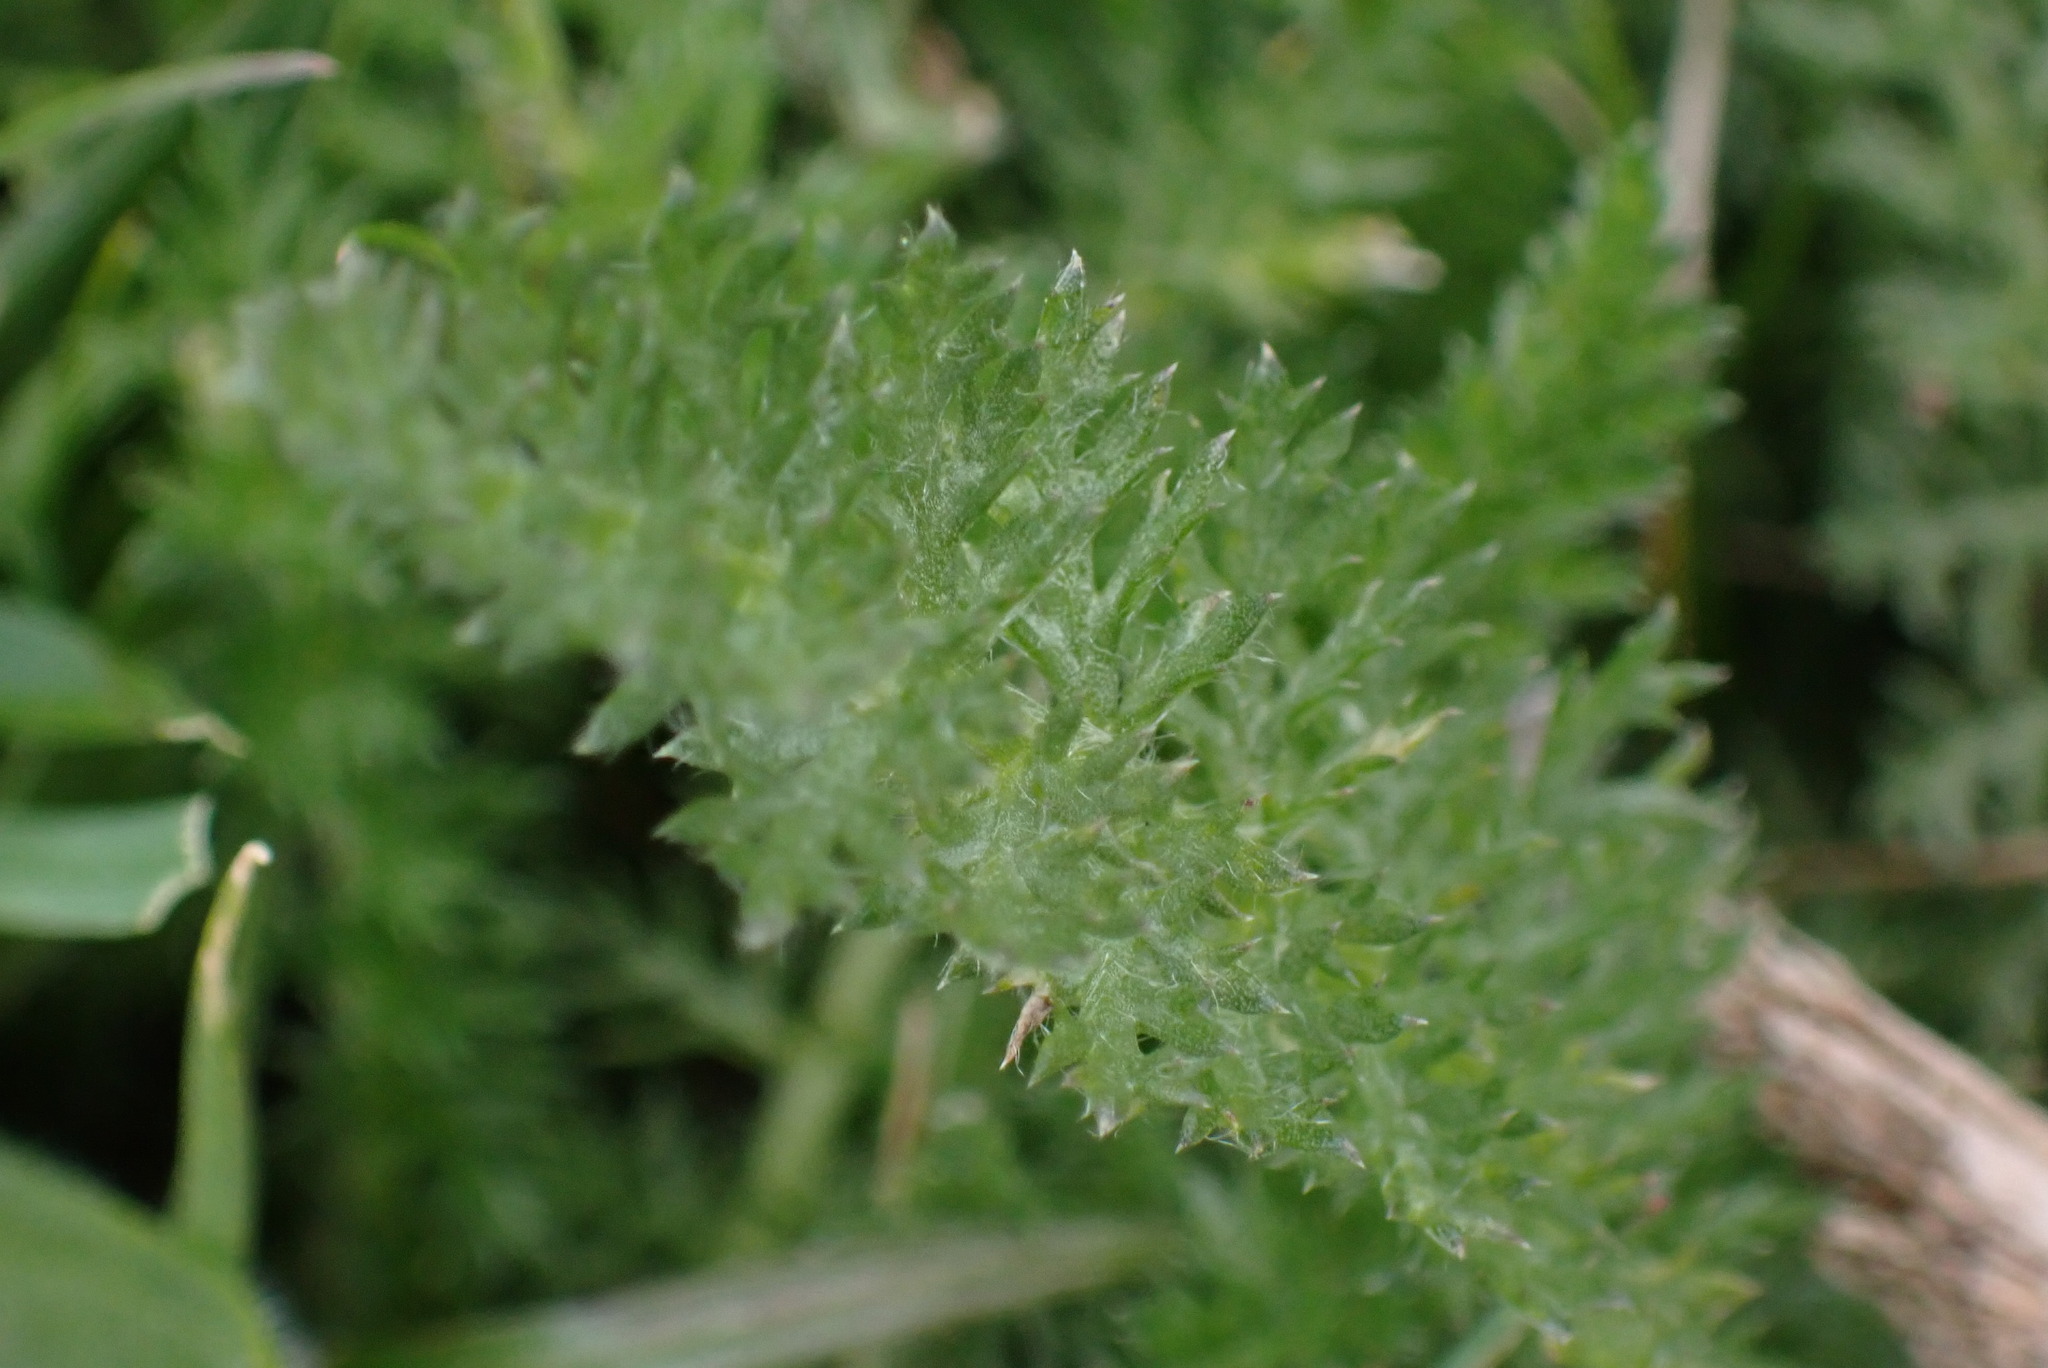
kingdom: Plantae
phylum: Tracheophyta
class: Magnoliopsida
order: Asterales
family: Asteraceae
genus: Achillea
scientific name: Achillea millefolium
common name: Yarrow
